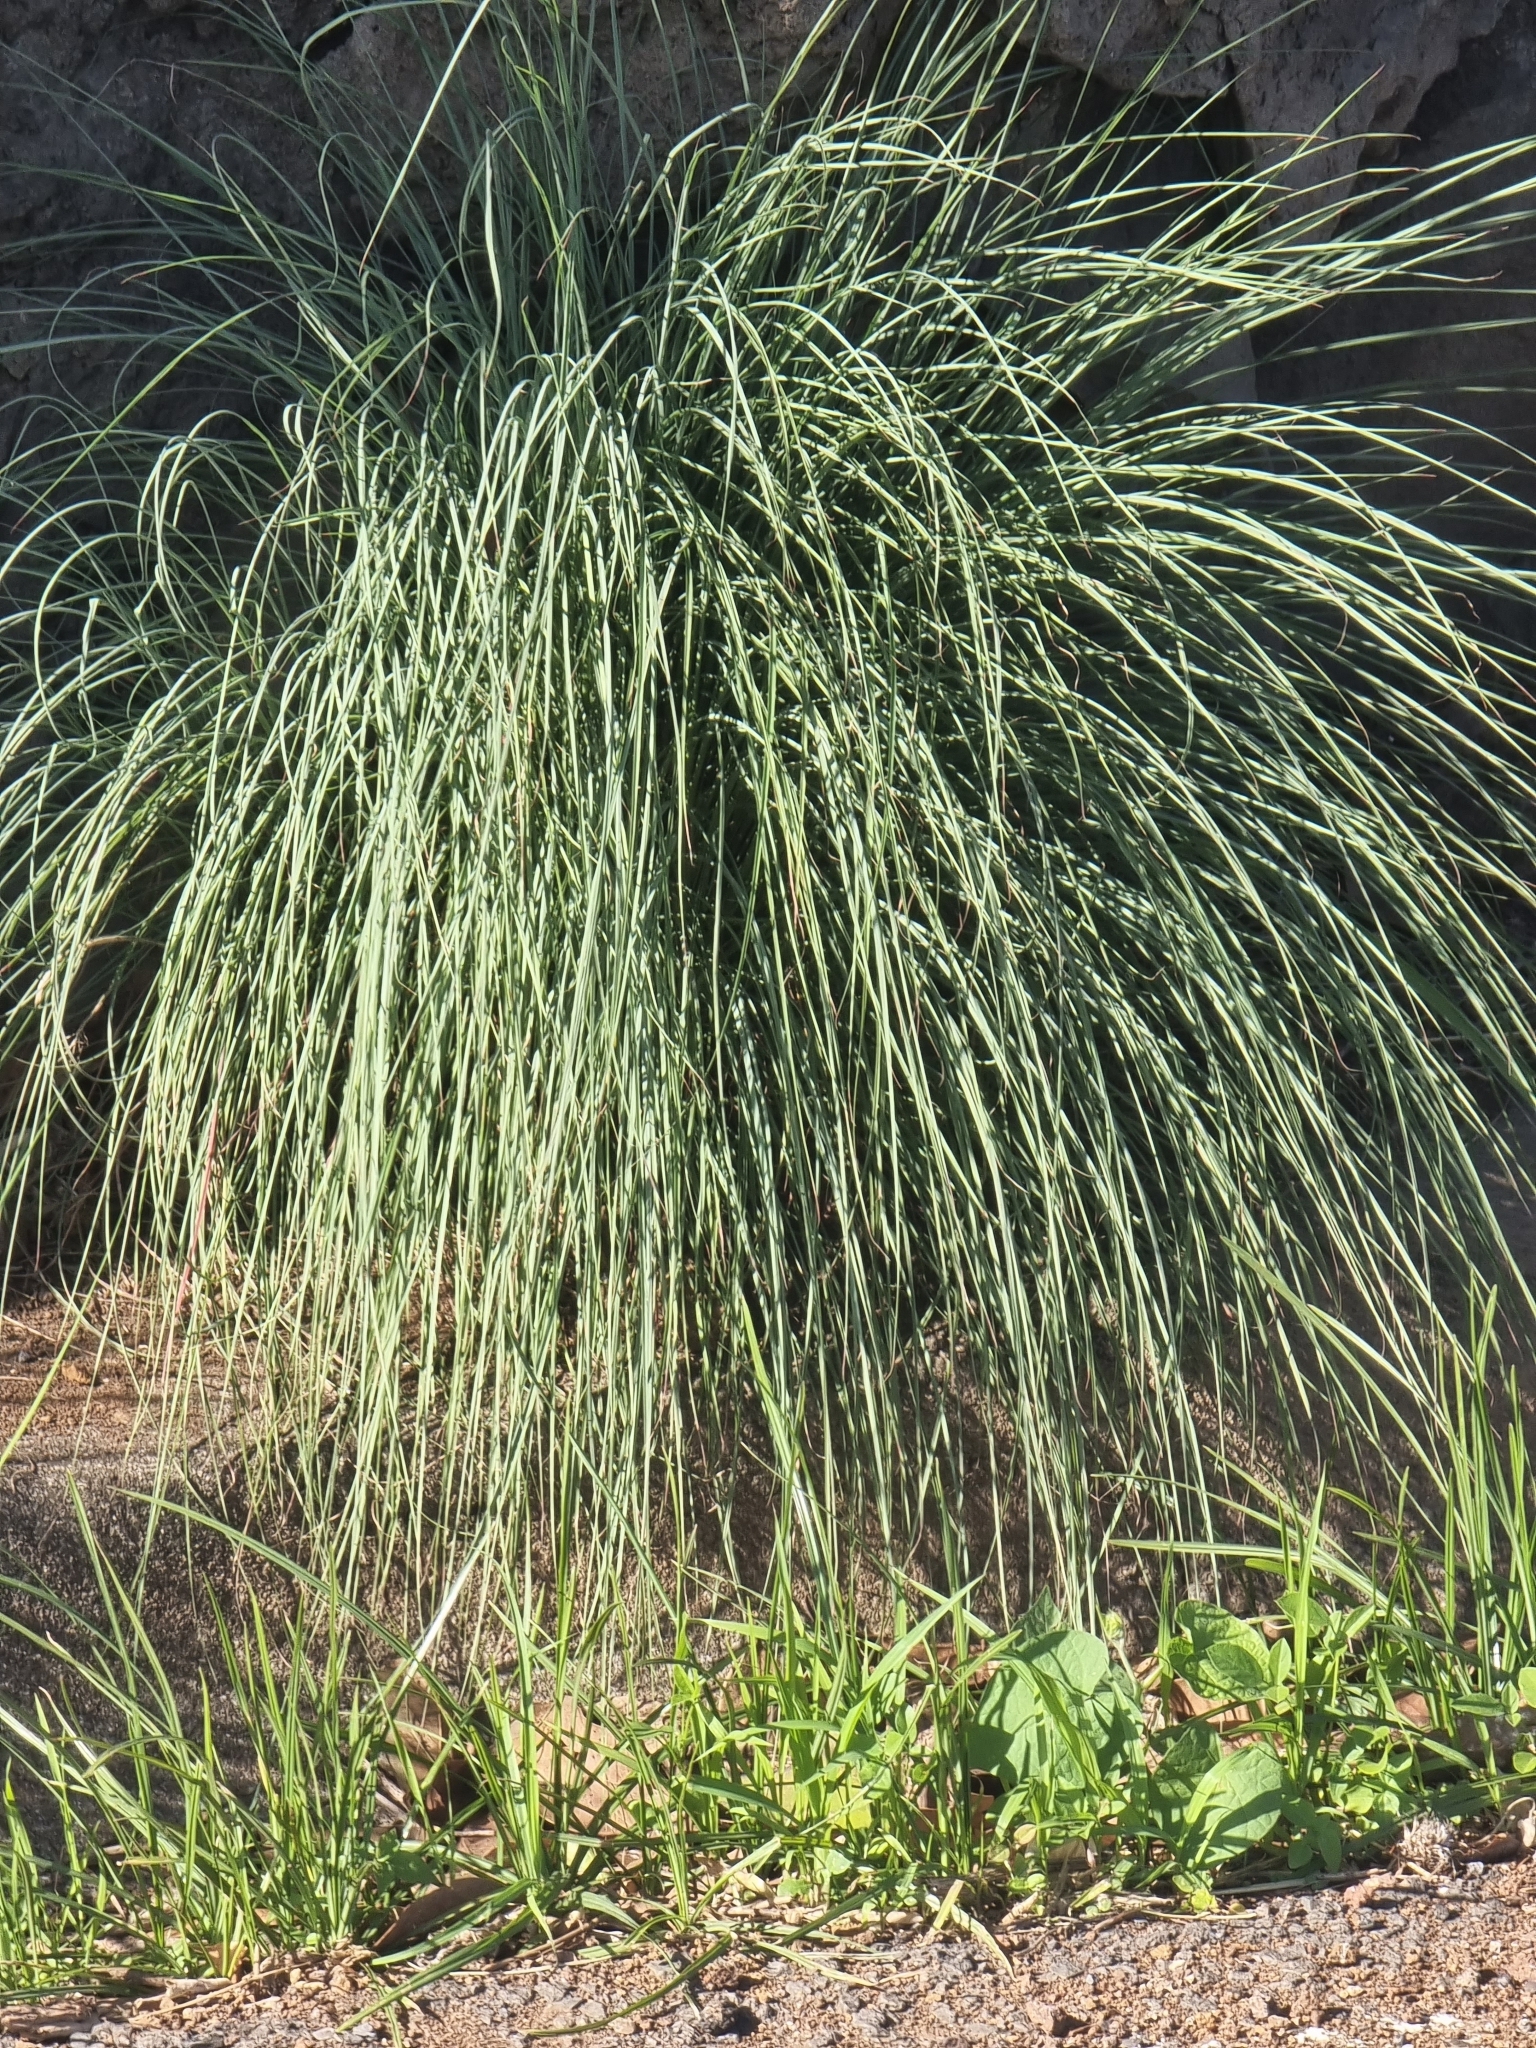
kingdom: Plantae
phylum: Tracheophyta
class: Liliopsida
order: Poales
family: Poaceae
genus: Cortaderia
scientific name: Cortaderia selloana
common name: Uruguayan pampas grass
